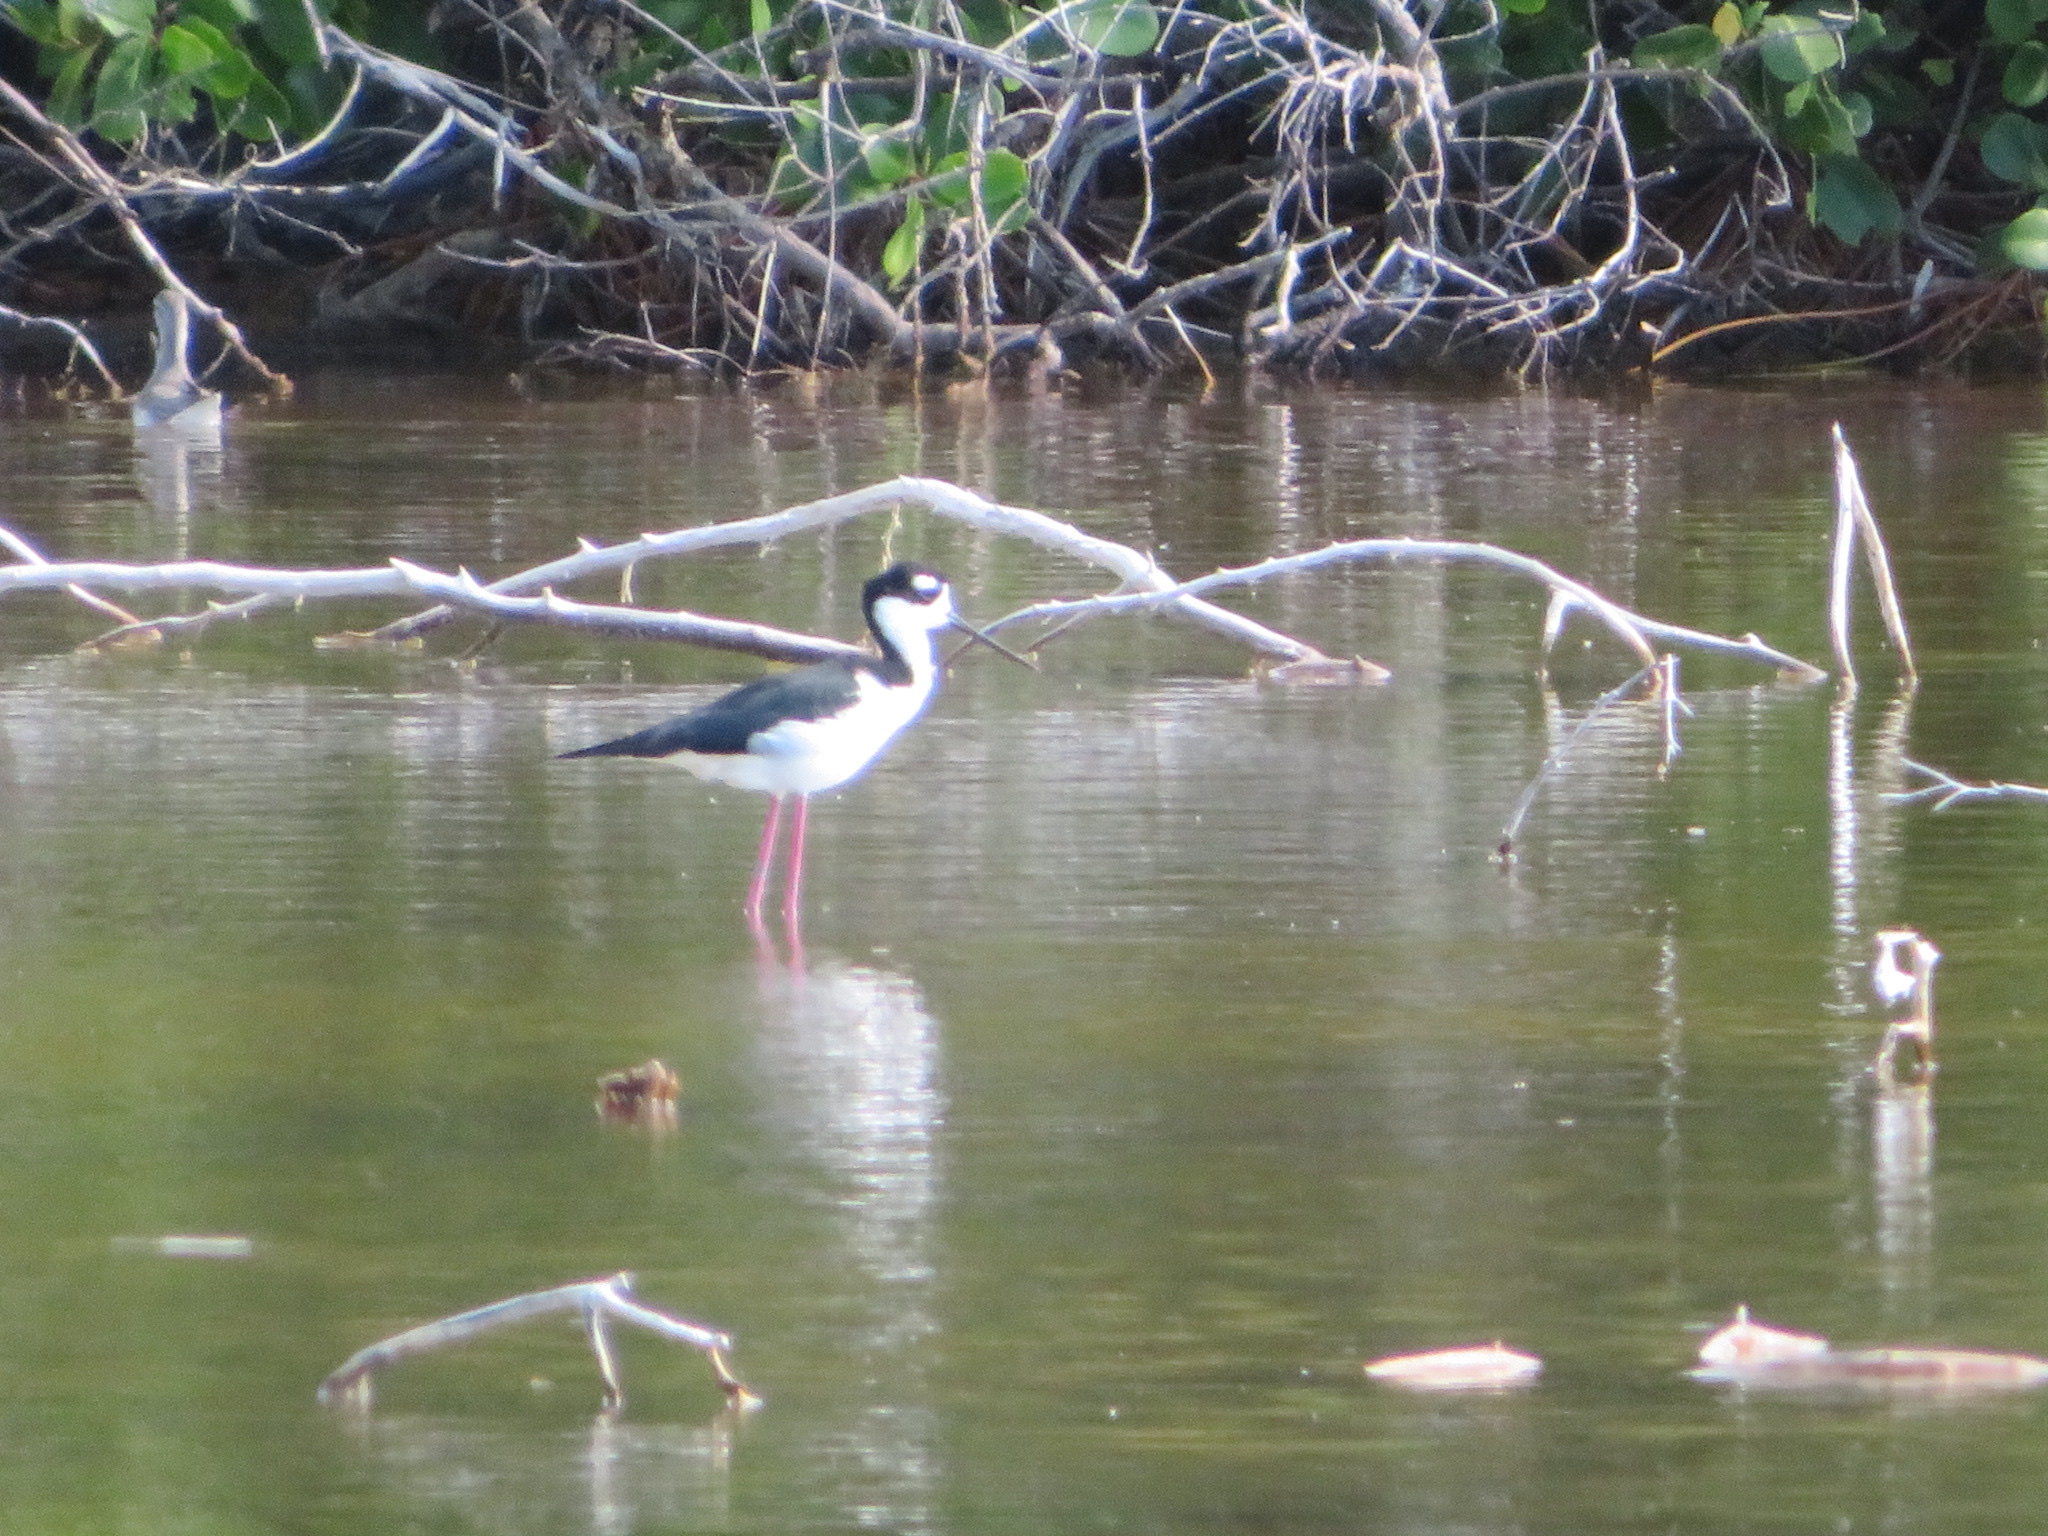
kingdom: Animalia
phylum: Chordata
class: Aves
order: Charadriiformes
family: Recurvirostridae
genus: Himantopus
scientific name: Himantopus mexicanus
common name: Black-necked stilt
